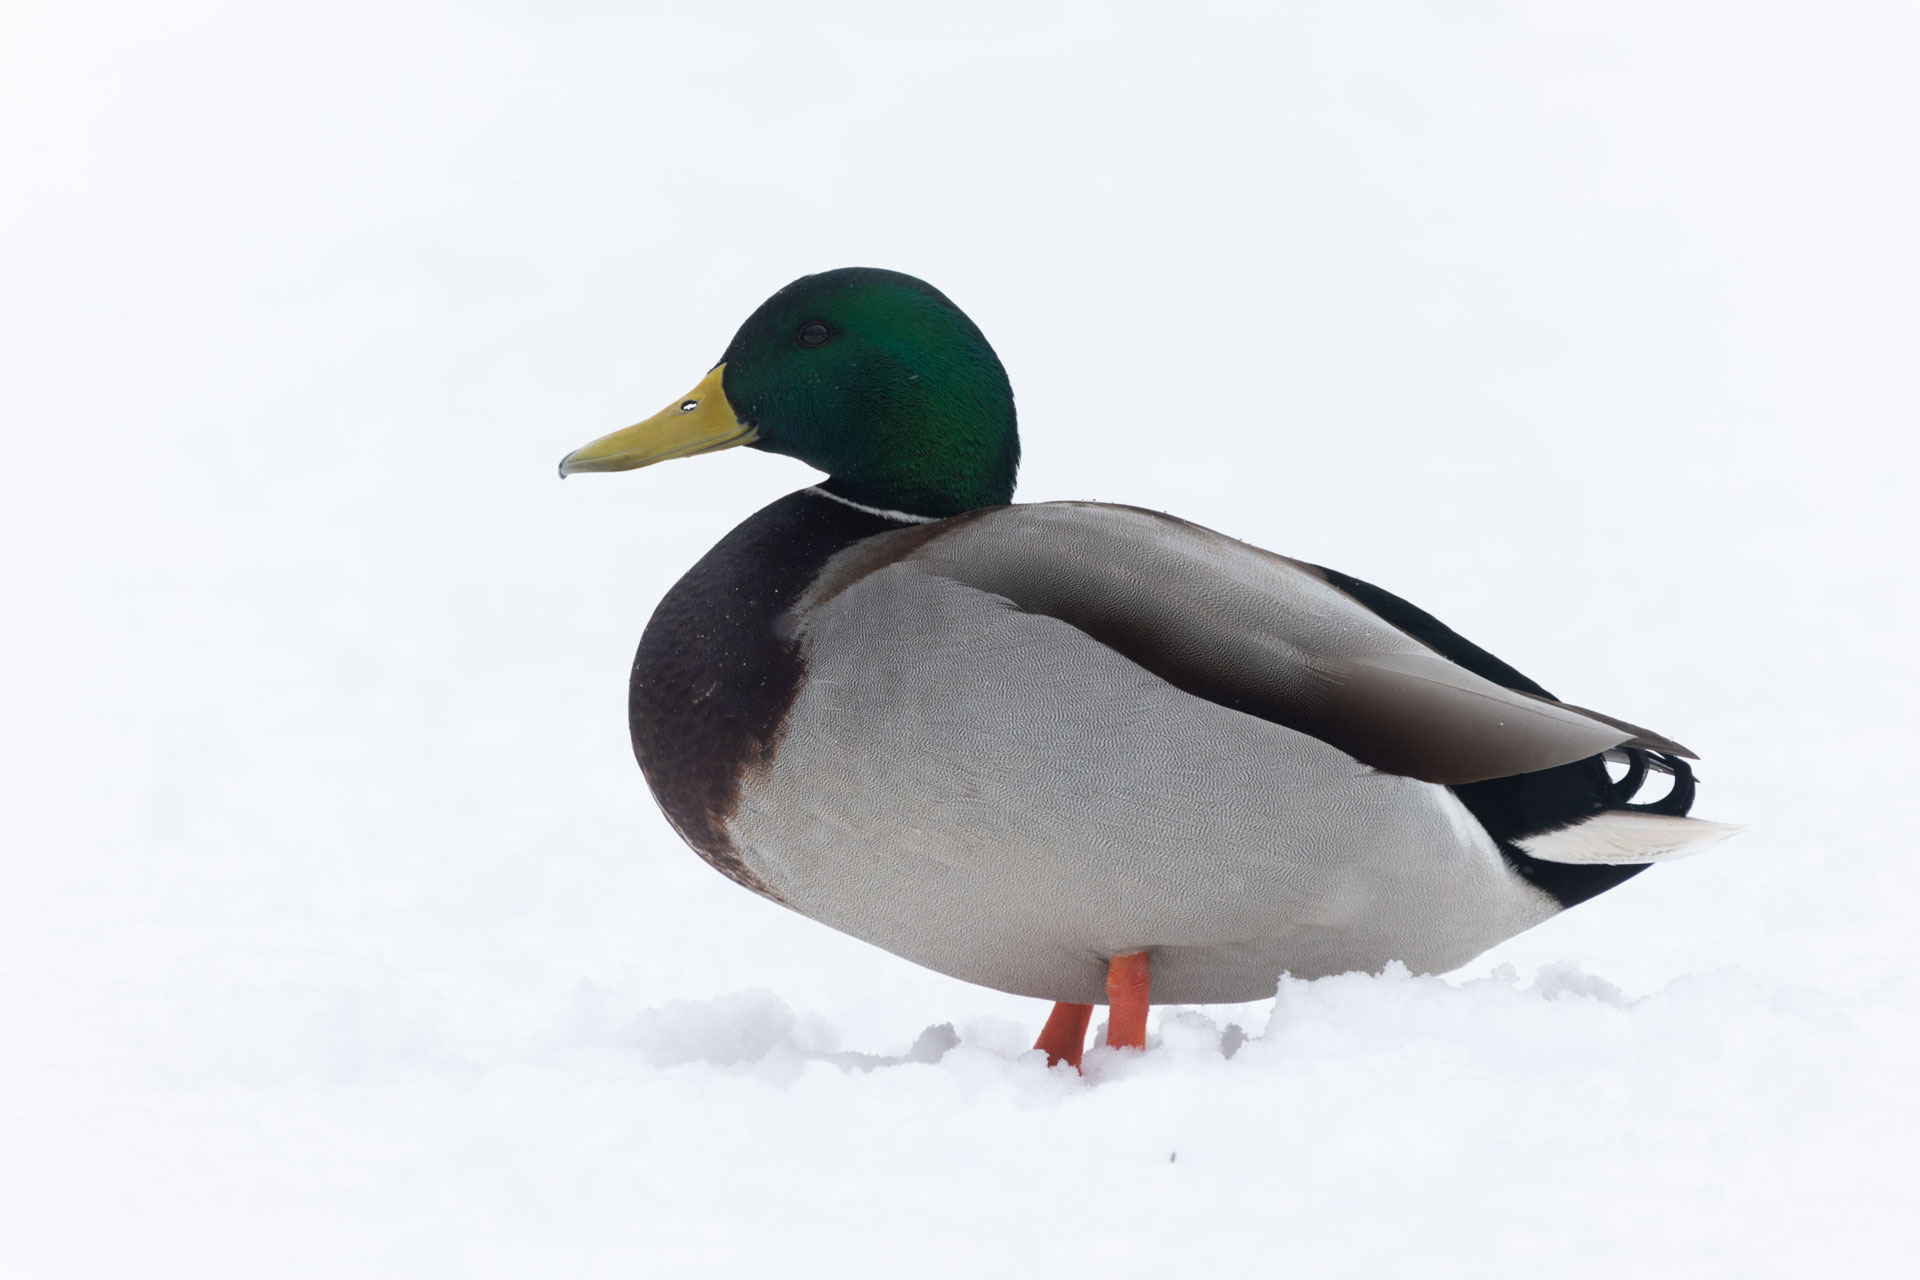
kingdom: Animalia
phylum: Chordata
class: Aves
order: Anseriformes
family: Anatidae
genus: Anas
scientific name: Anas platyrhynchos
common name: Mallard
